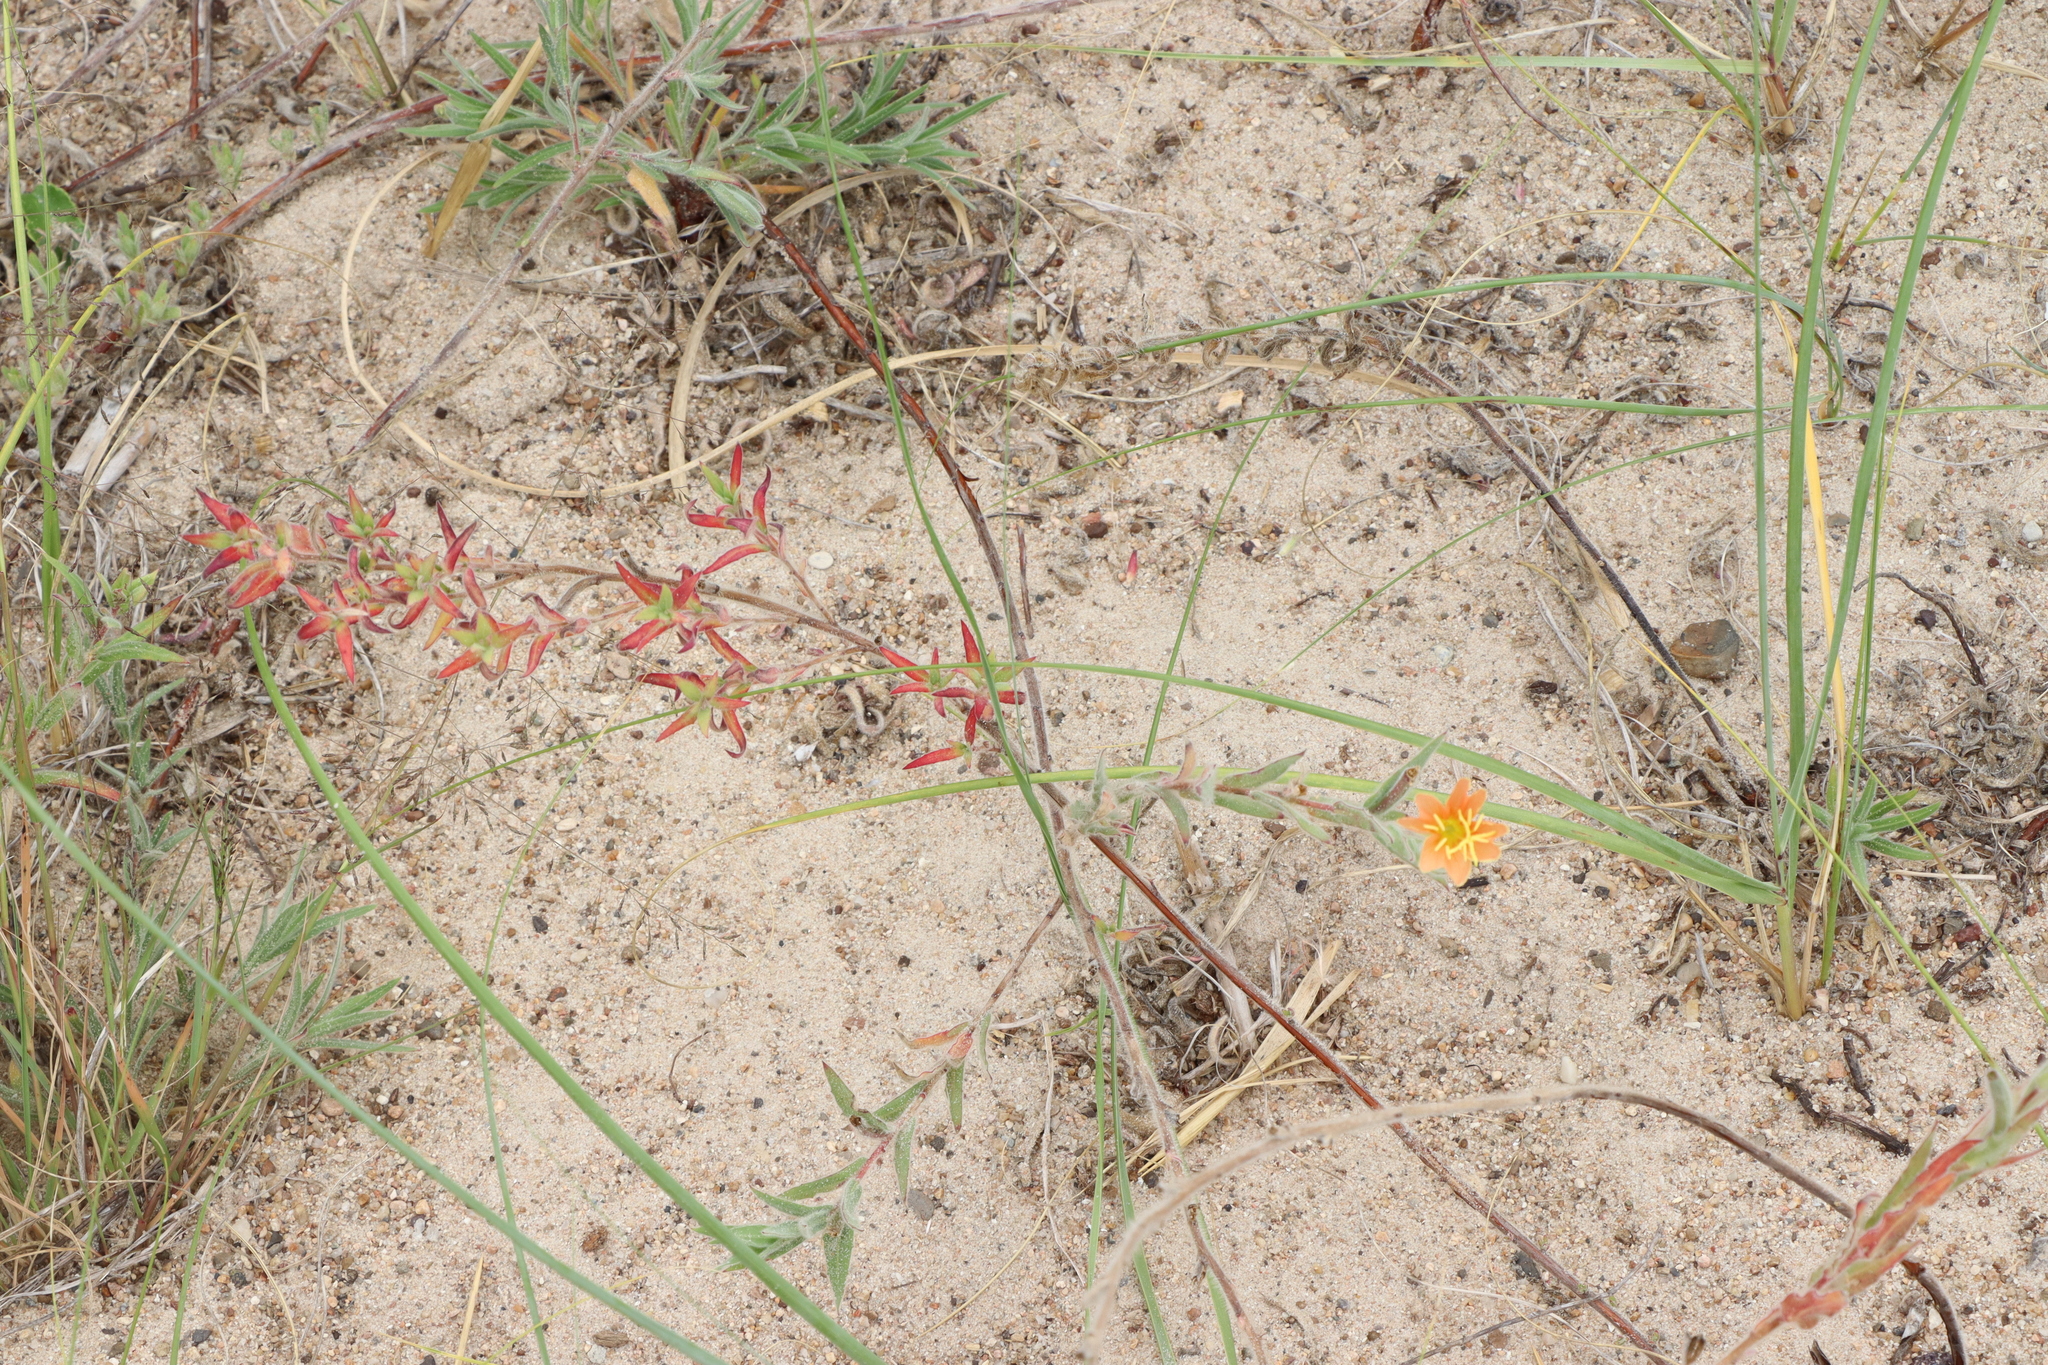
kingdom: Plantae
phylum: Tracheophyta
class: Magnoliopsida
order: Myrtales
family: Onagraceae
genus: Oenothera
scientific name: Oenothera mollissima
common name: Argentine evening primrose
